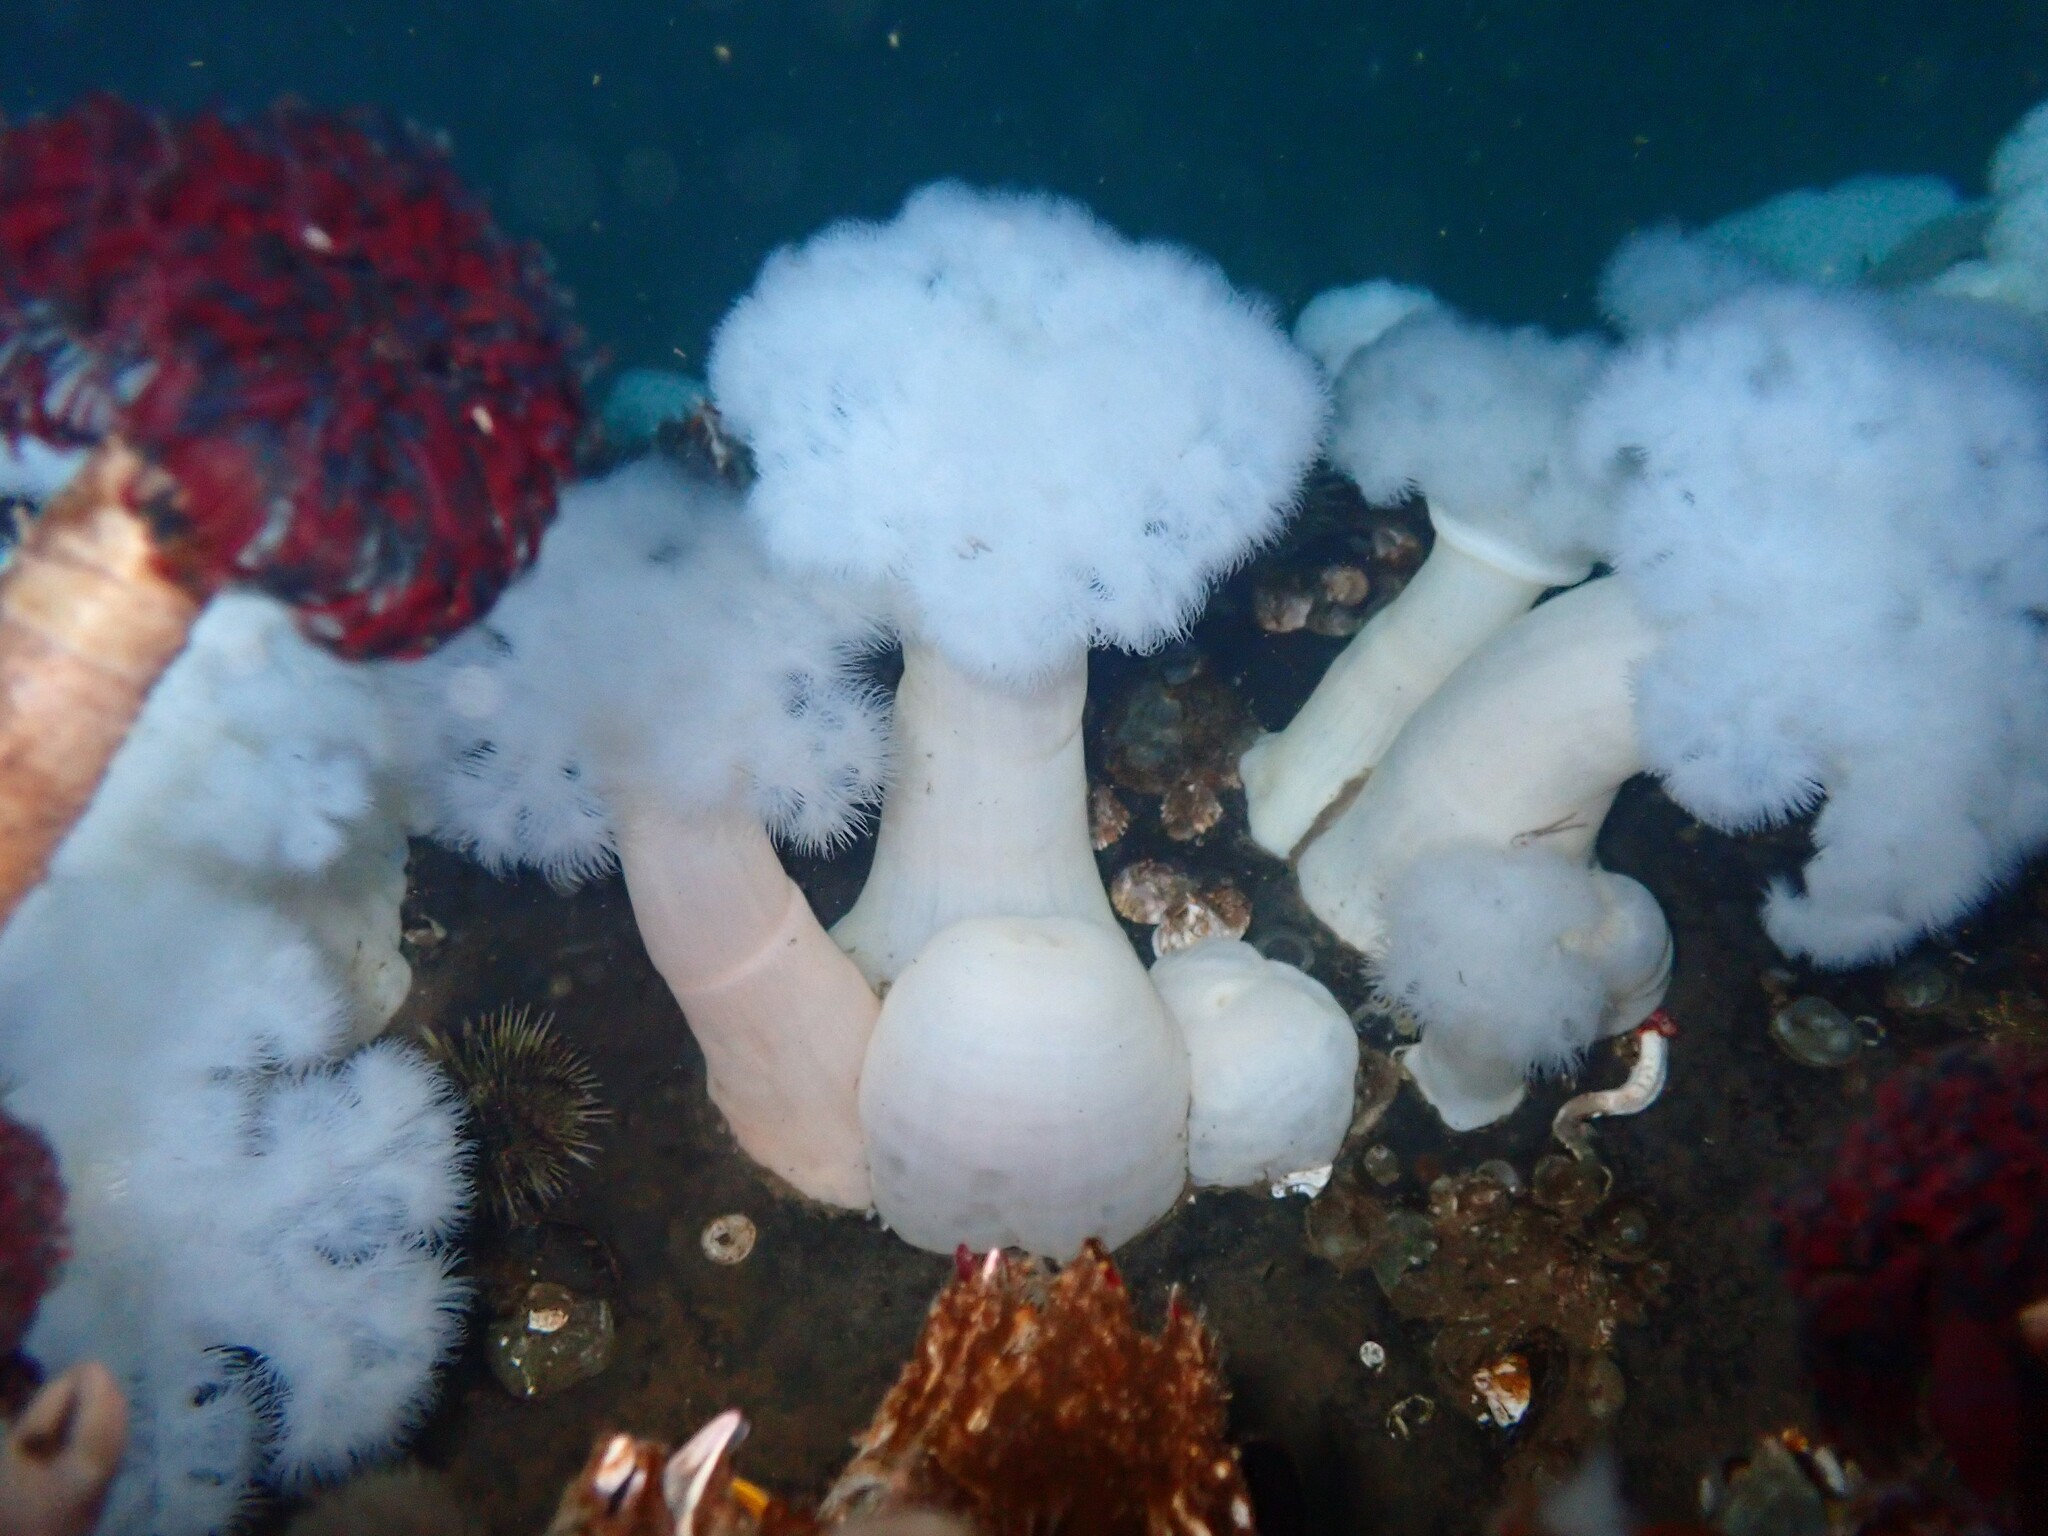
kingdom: Animalia
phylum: Cnidaria
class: Anthozoa
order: Actiniaria
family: Metridiidae
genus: Metridium
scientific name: Metridium farcimen
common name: Gigantic anemone
